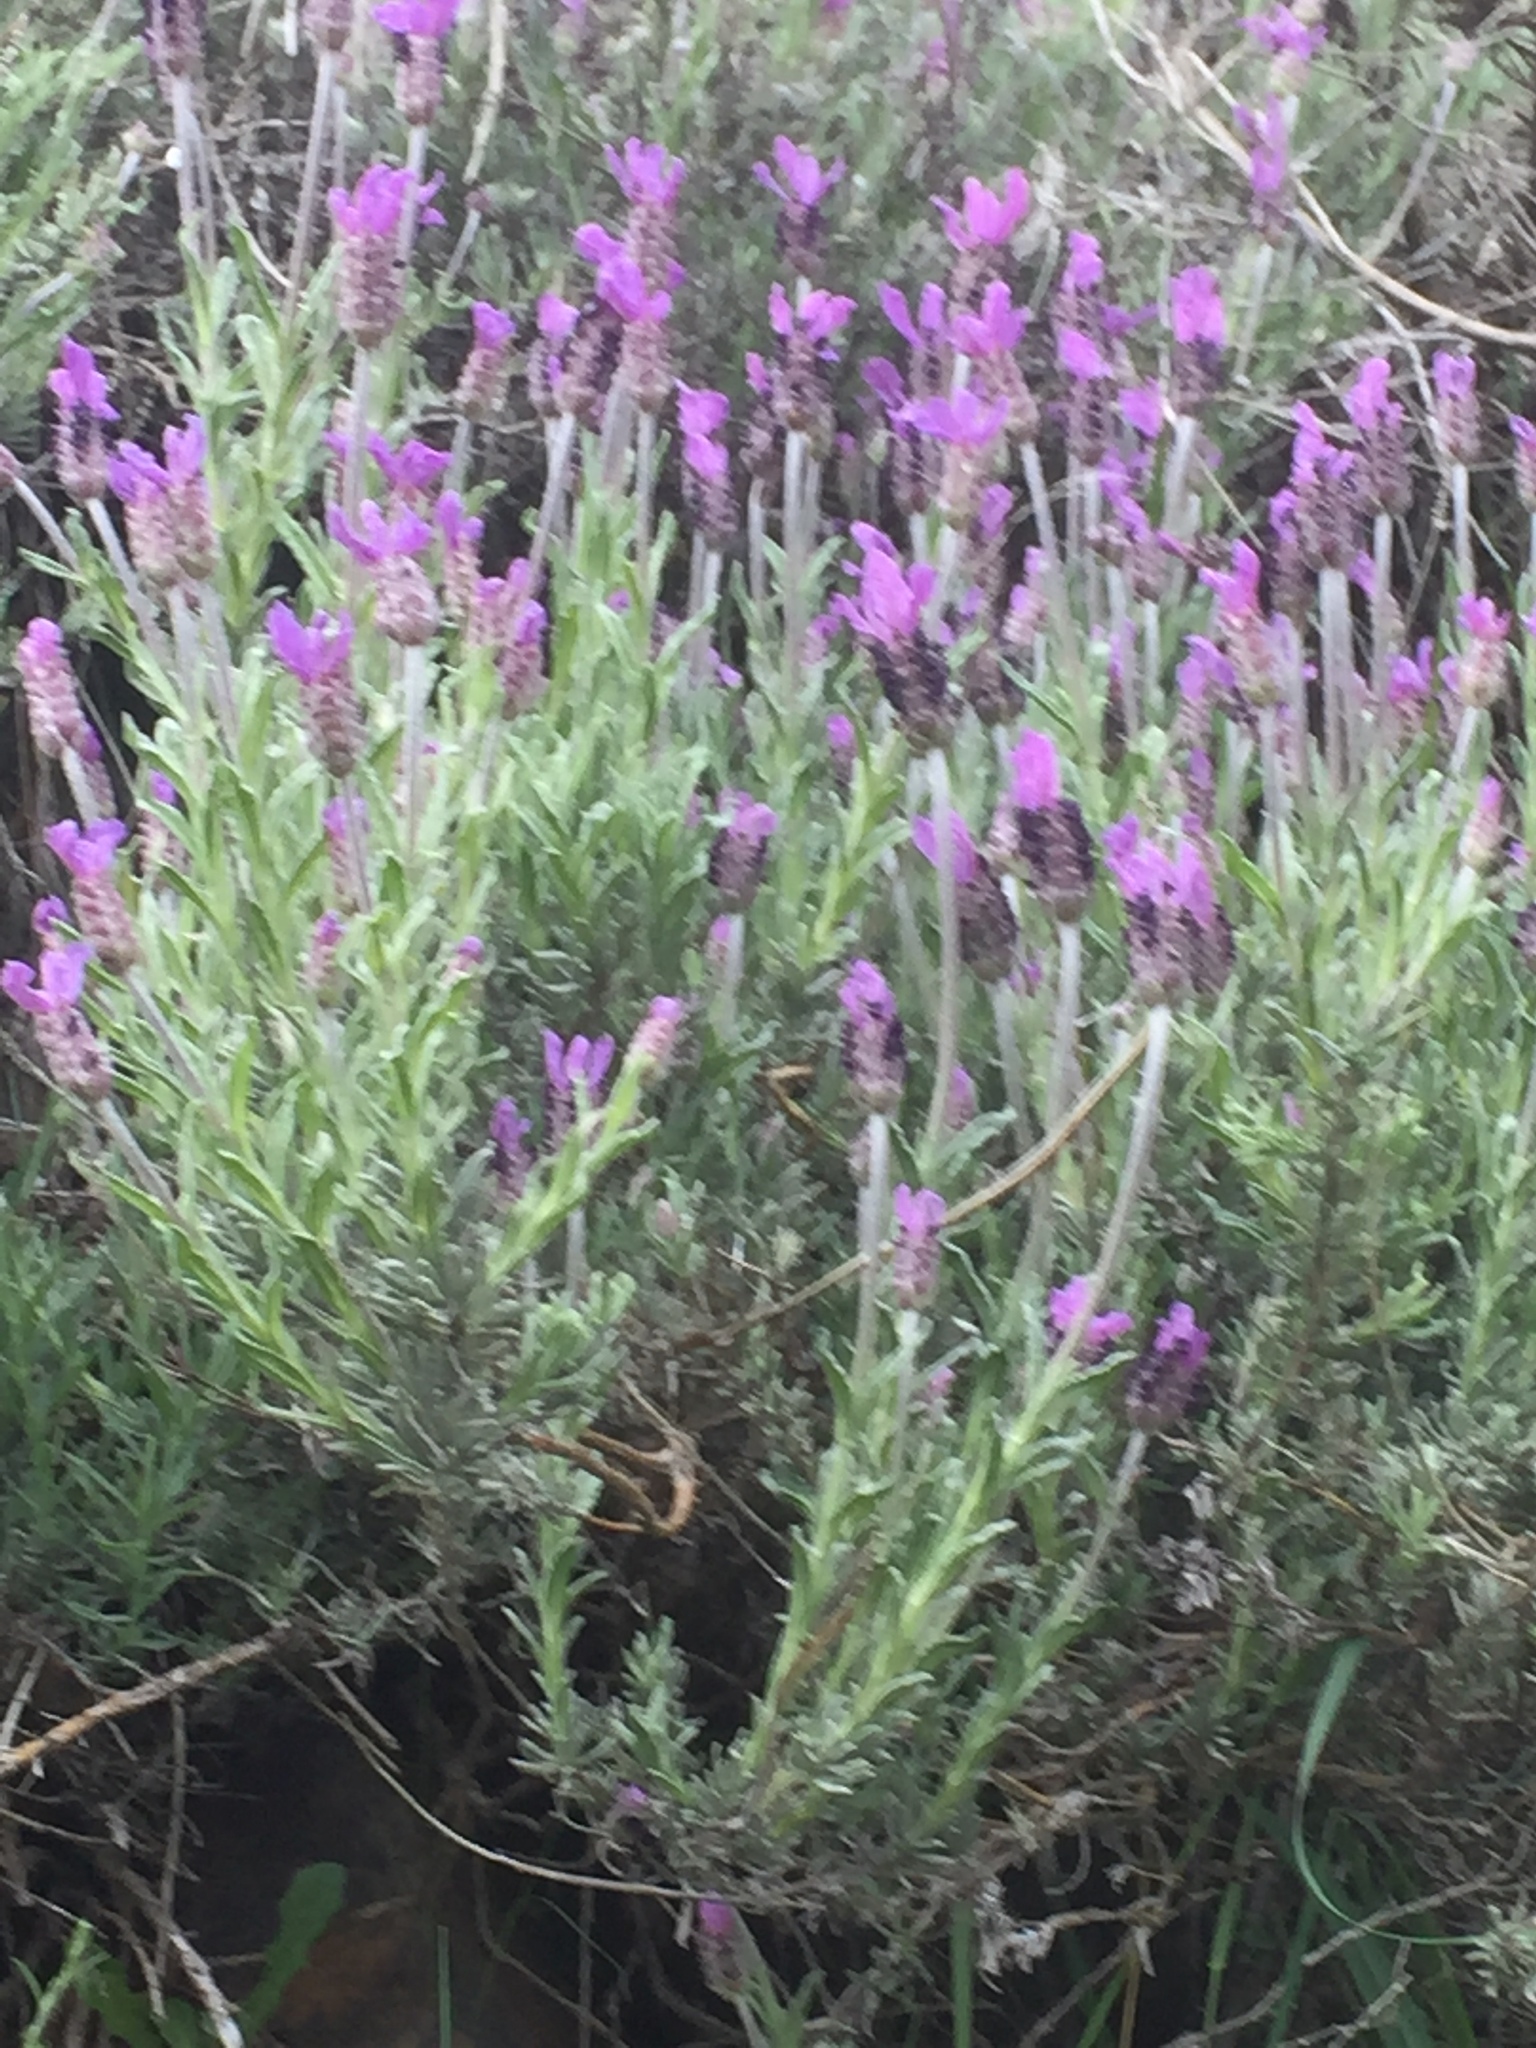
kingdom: Plantae
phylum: Tracheophyta
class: Magnoliopsida
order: Lamiales
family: Lamiaceae
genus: Lavandula
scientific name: Lavandula pedunculata
